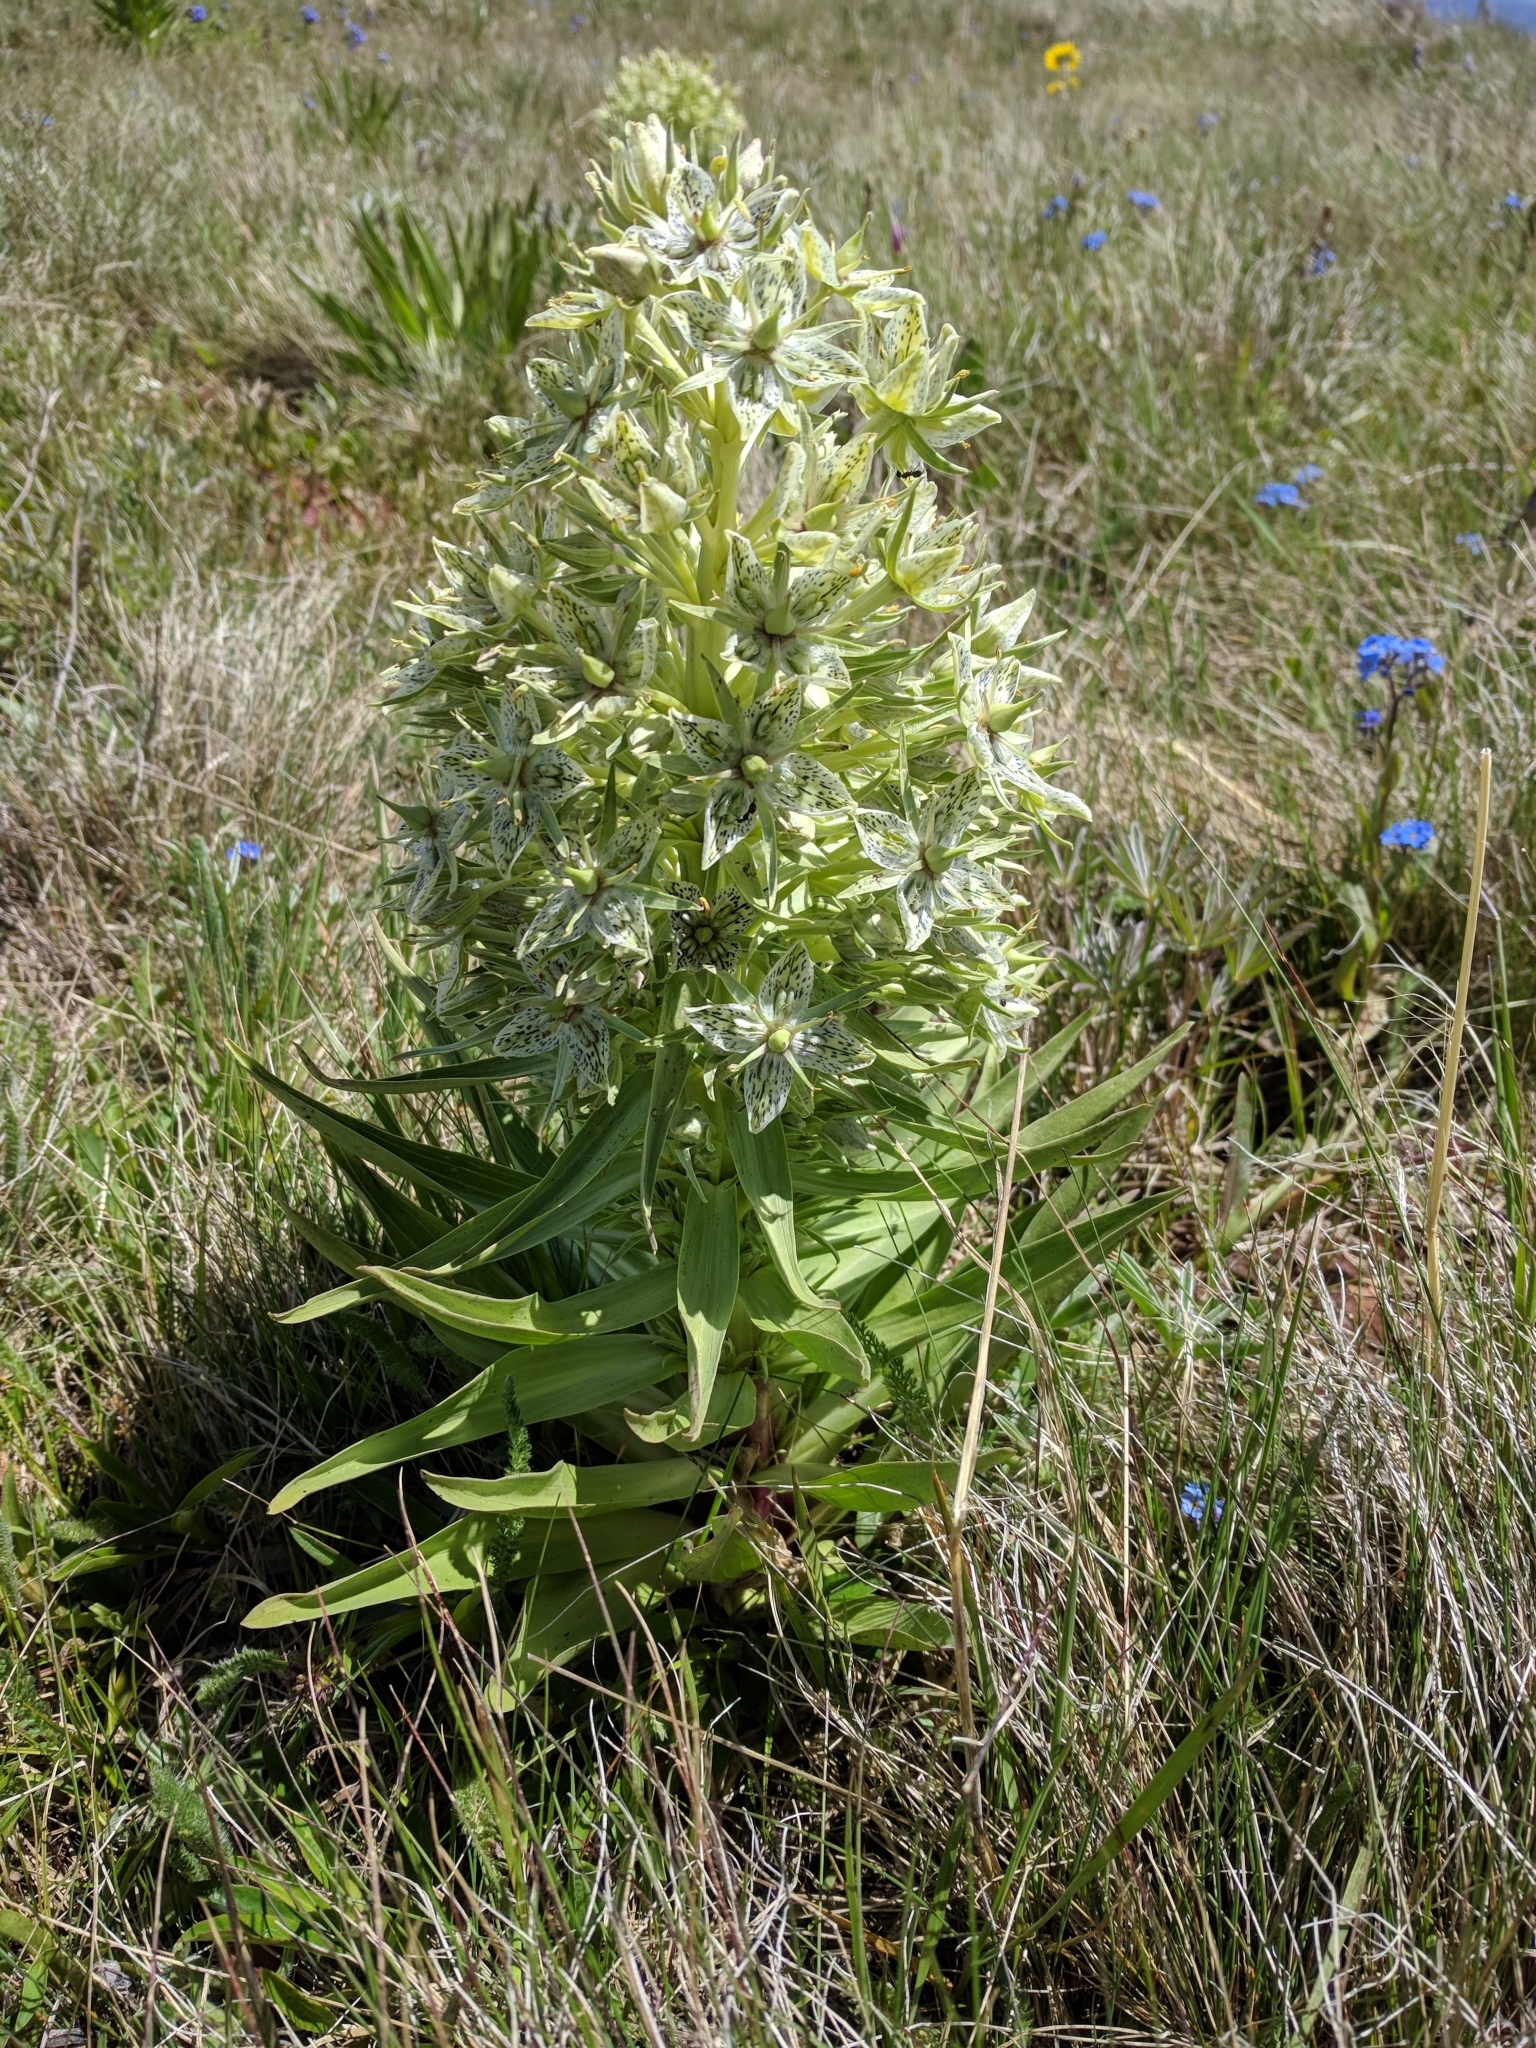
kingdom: Plantae
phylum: Tracheophyta
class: Magnoliopsida
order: Gentianales
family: Gentianaceae
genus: Frasera
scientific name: Frasera speciosa
